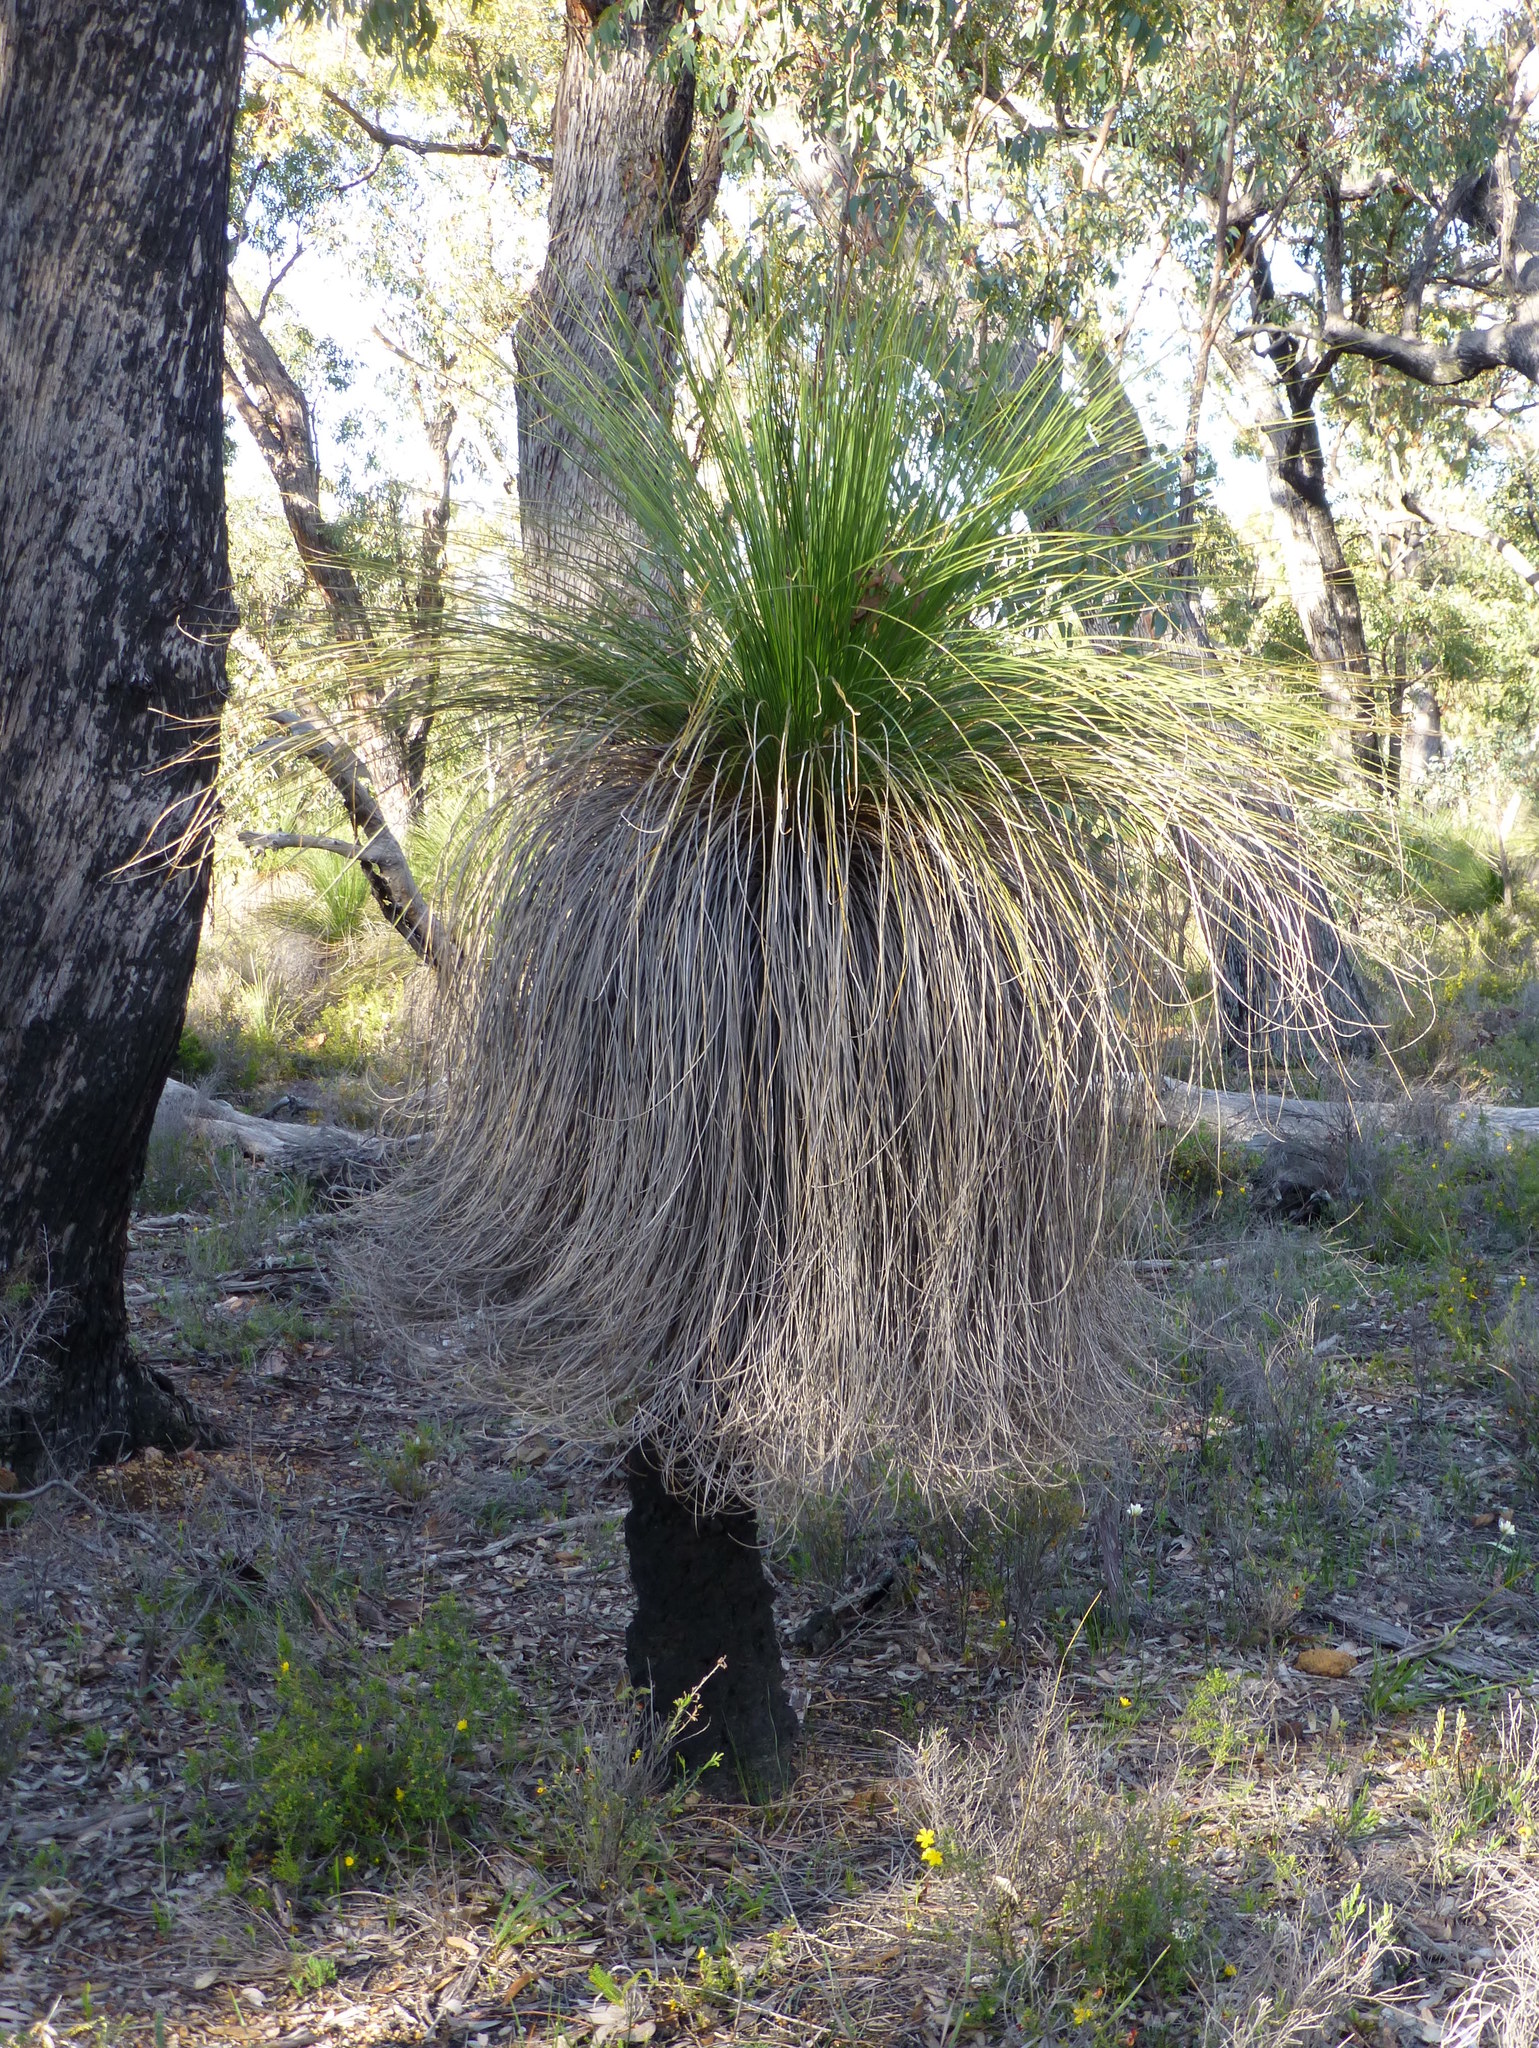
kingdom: Plantae
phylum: Tracheophyta
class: Liliopsida
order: Asparagales
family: Asphodelaceae
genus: Xanthorrhoea
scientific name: Xanthorrhoea preissii
